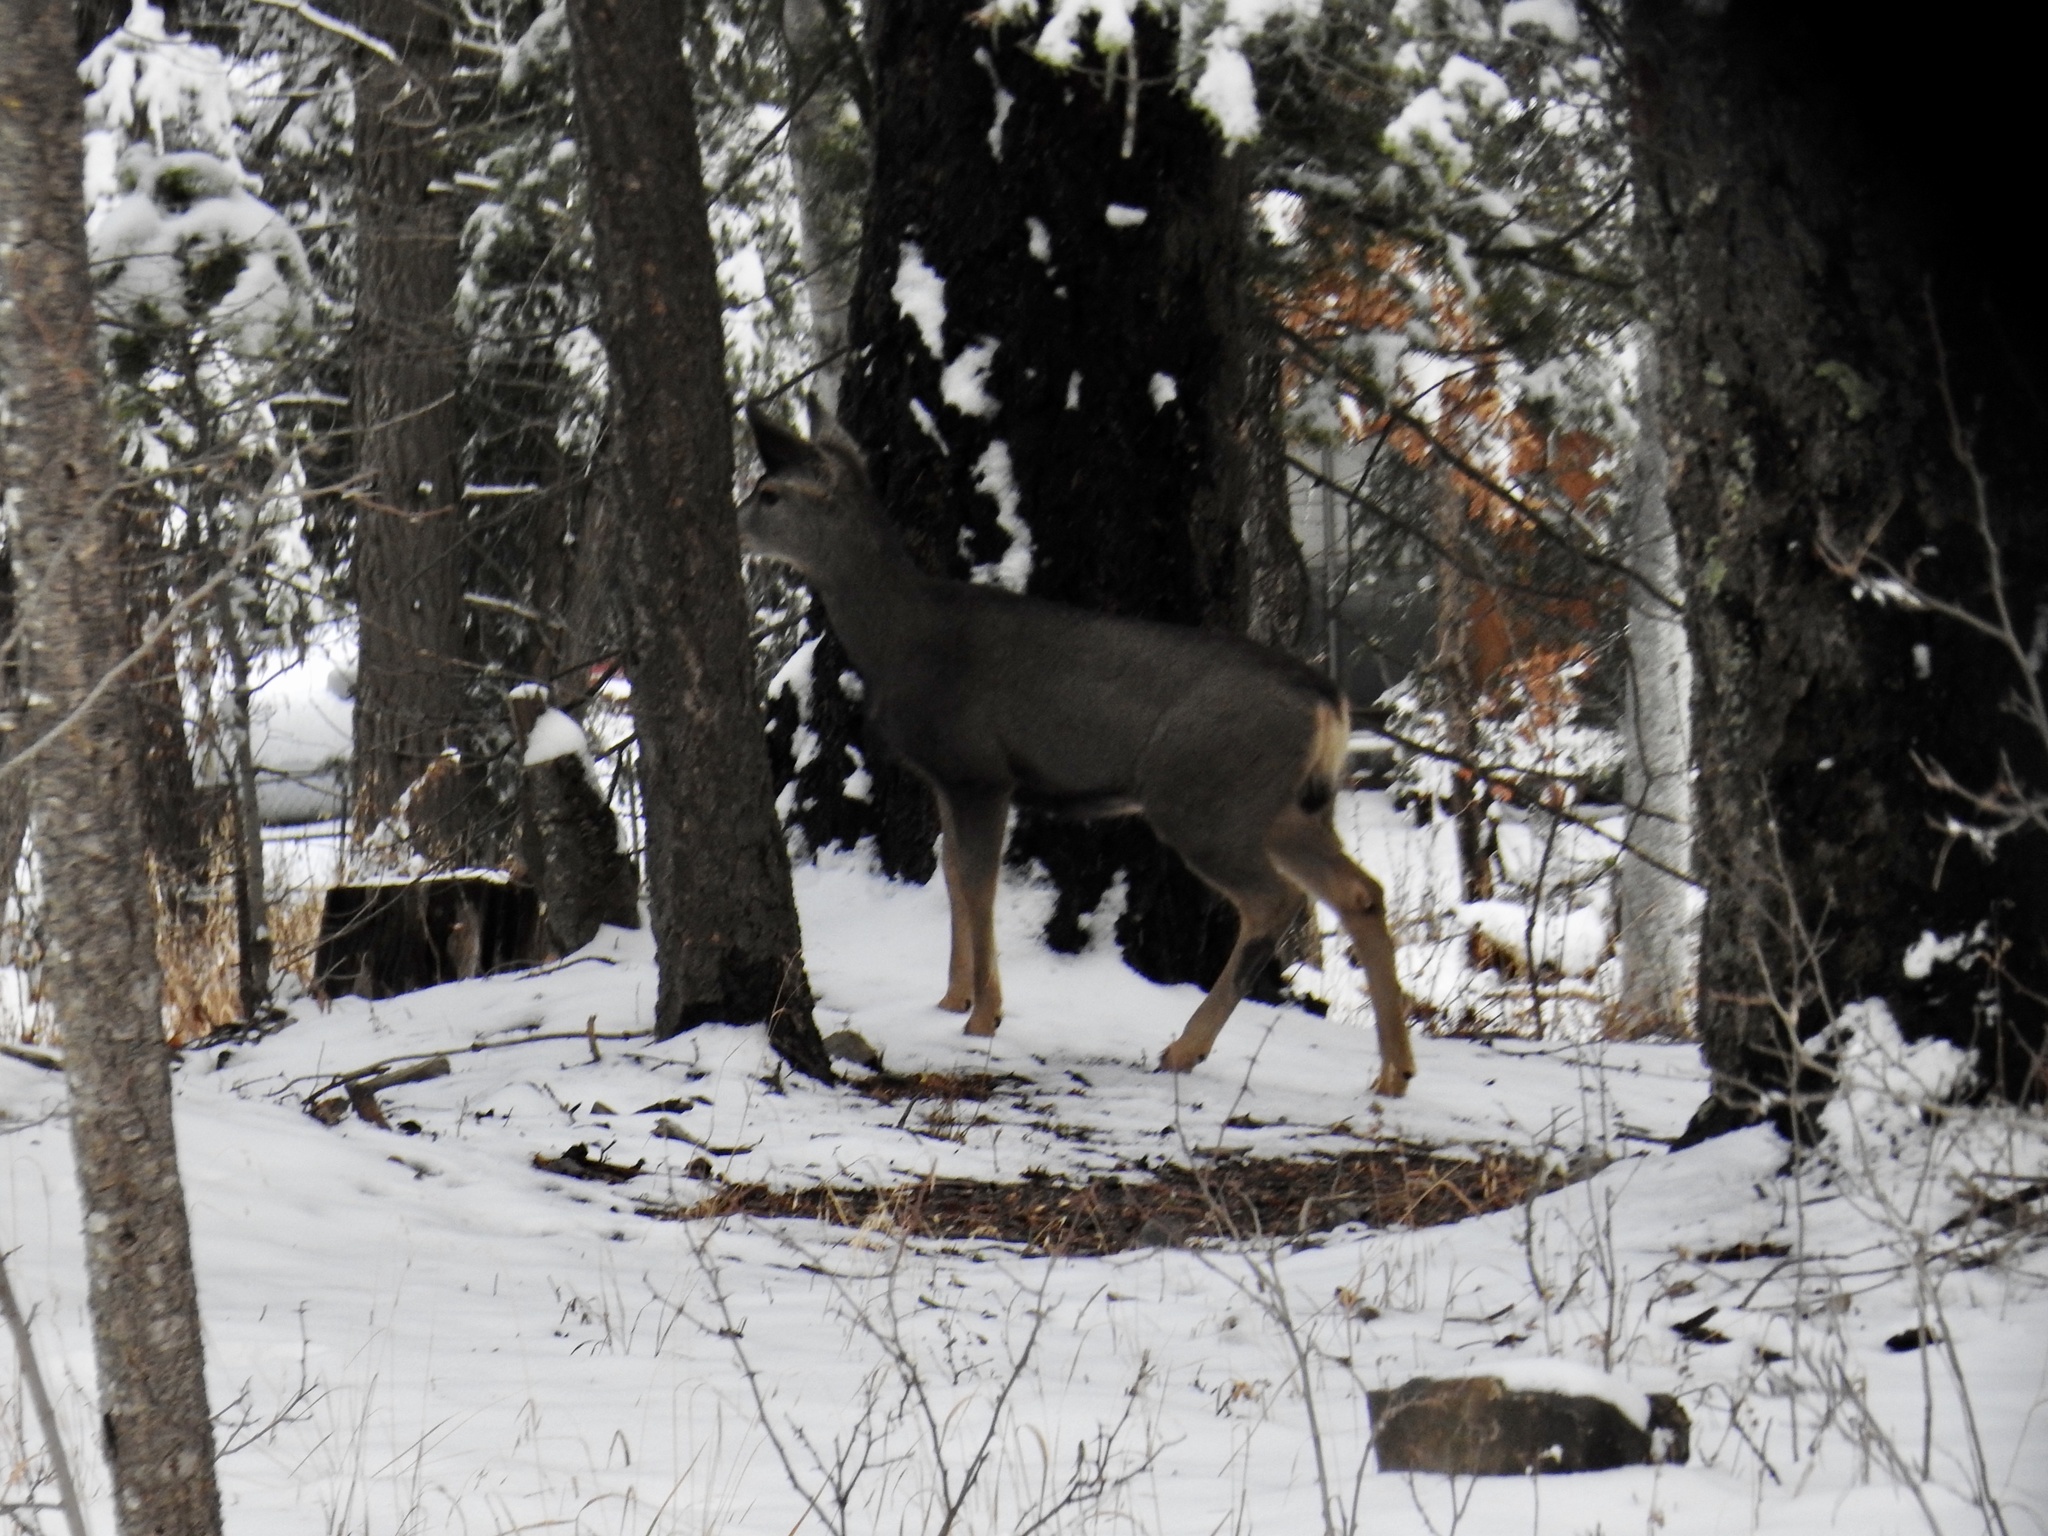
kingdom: Animalia
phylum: Chordata
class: Mammalia
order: Artiodactyla
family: Cervidae
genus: Odocoileus
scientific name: Odocoileus hemionus
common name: Mule deer
